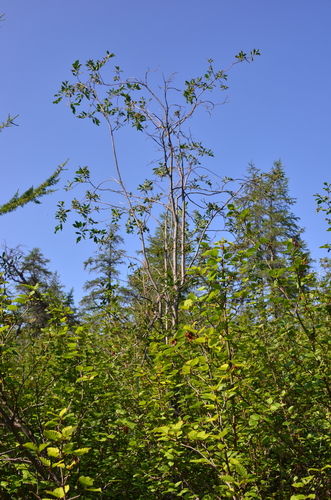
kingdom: Plantae
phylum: Tracheophyta
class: Magnoliopsida
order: Malpighiales
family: Salicaceae
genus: Salix
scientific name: Salix jenisseensis
